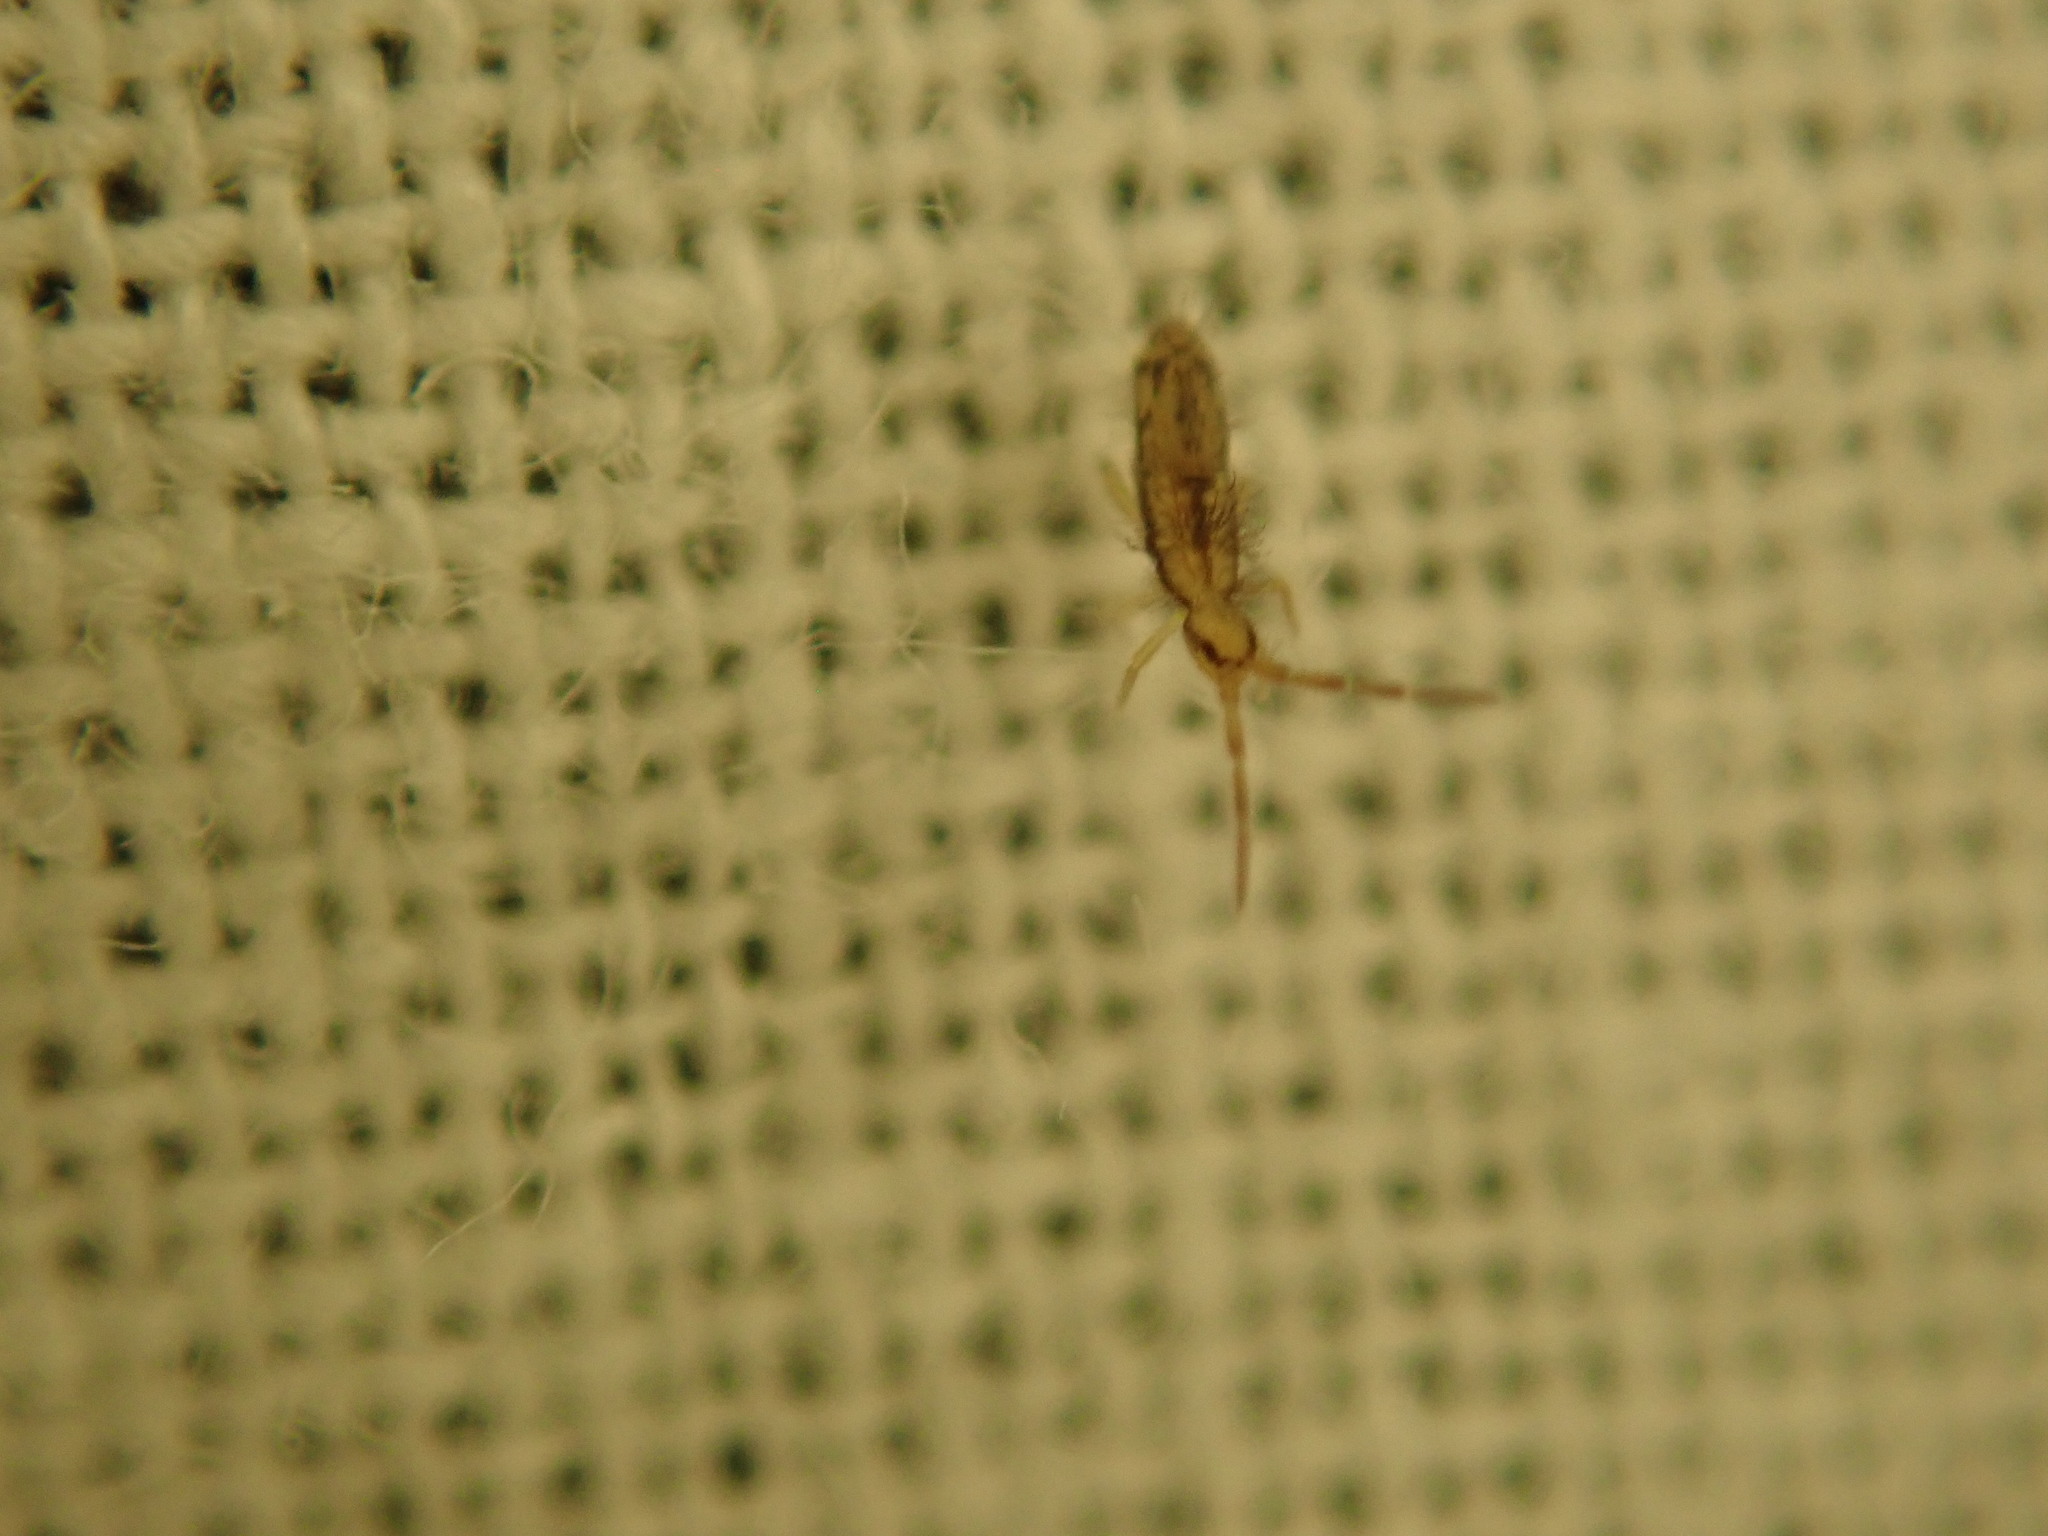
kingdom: Animalia
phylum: Arthropoda
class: Collembola
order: Entomobryomorpha
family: Entomobryidae
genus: Homidia
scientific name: Homidia socia
